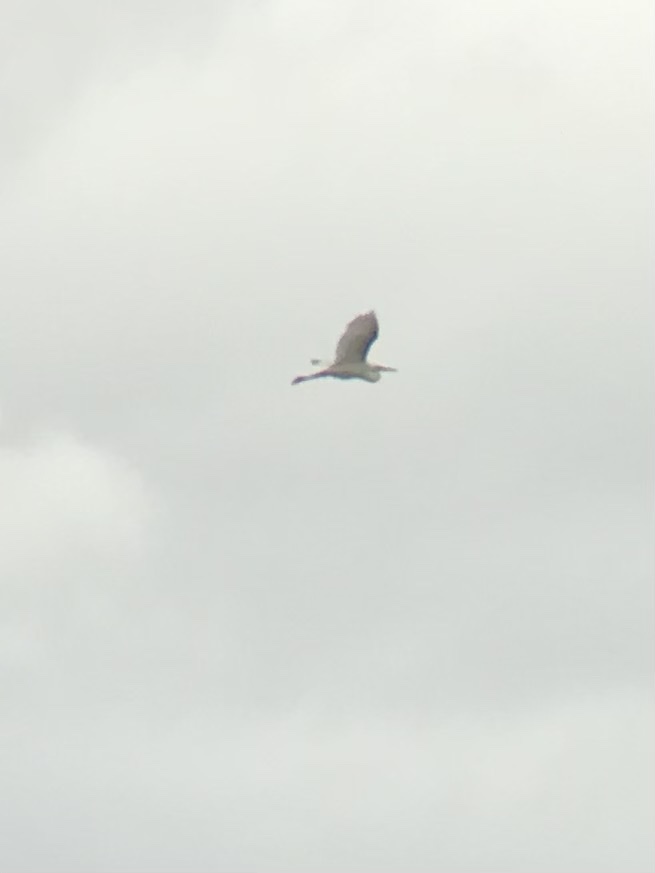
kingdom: Animalia
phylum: Chordata
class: Aves
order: Pelecaniformes
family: Ardeidae
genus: Ardea
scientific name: Ardea alba
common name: Great egret
